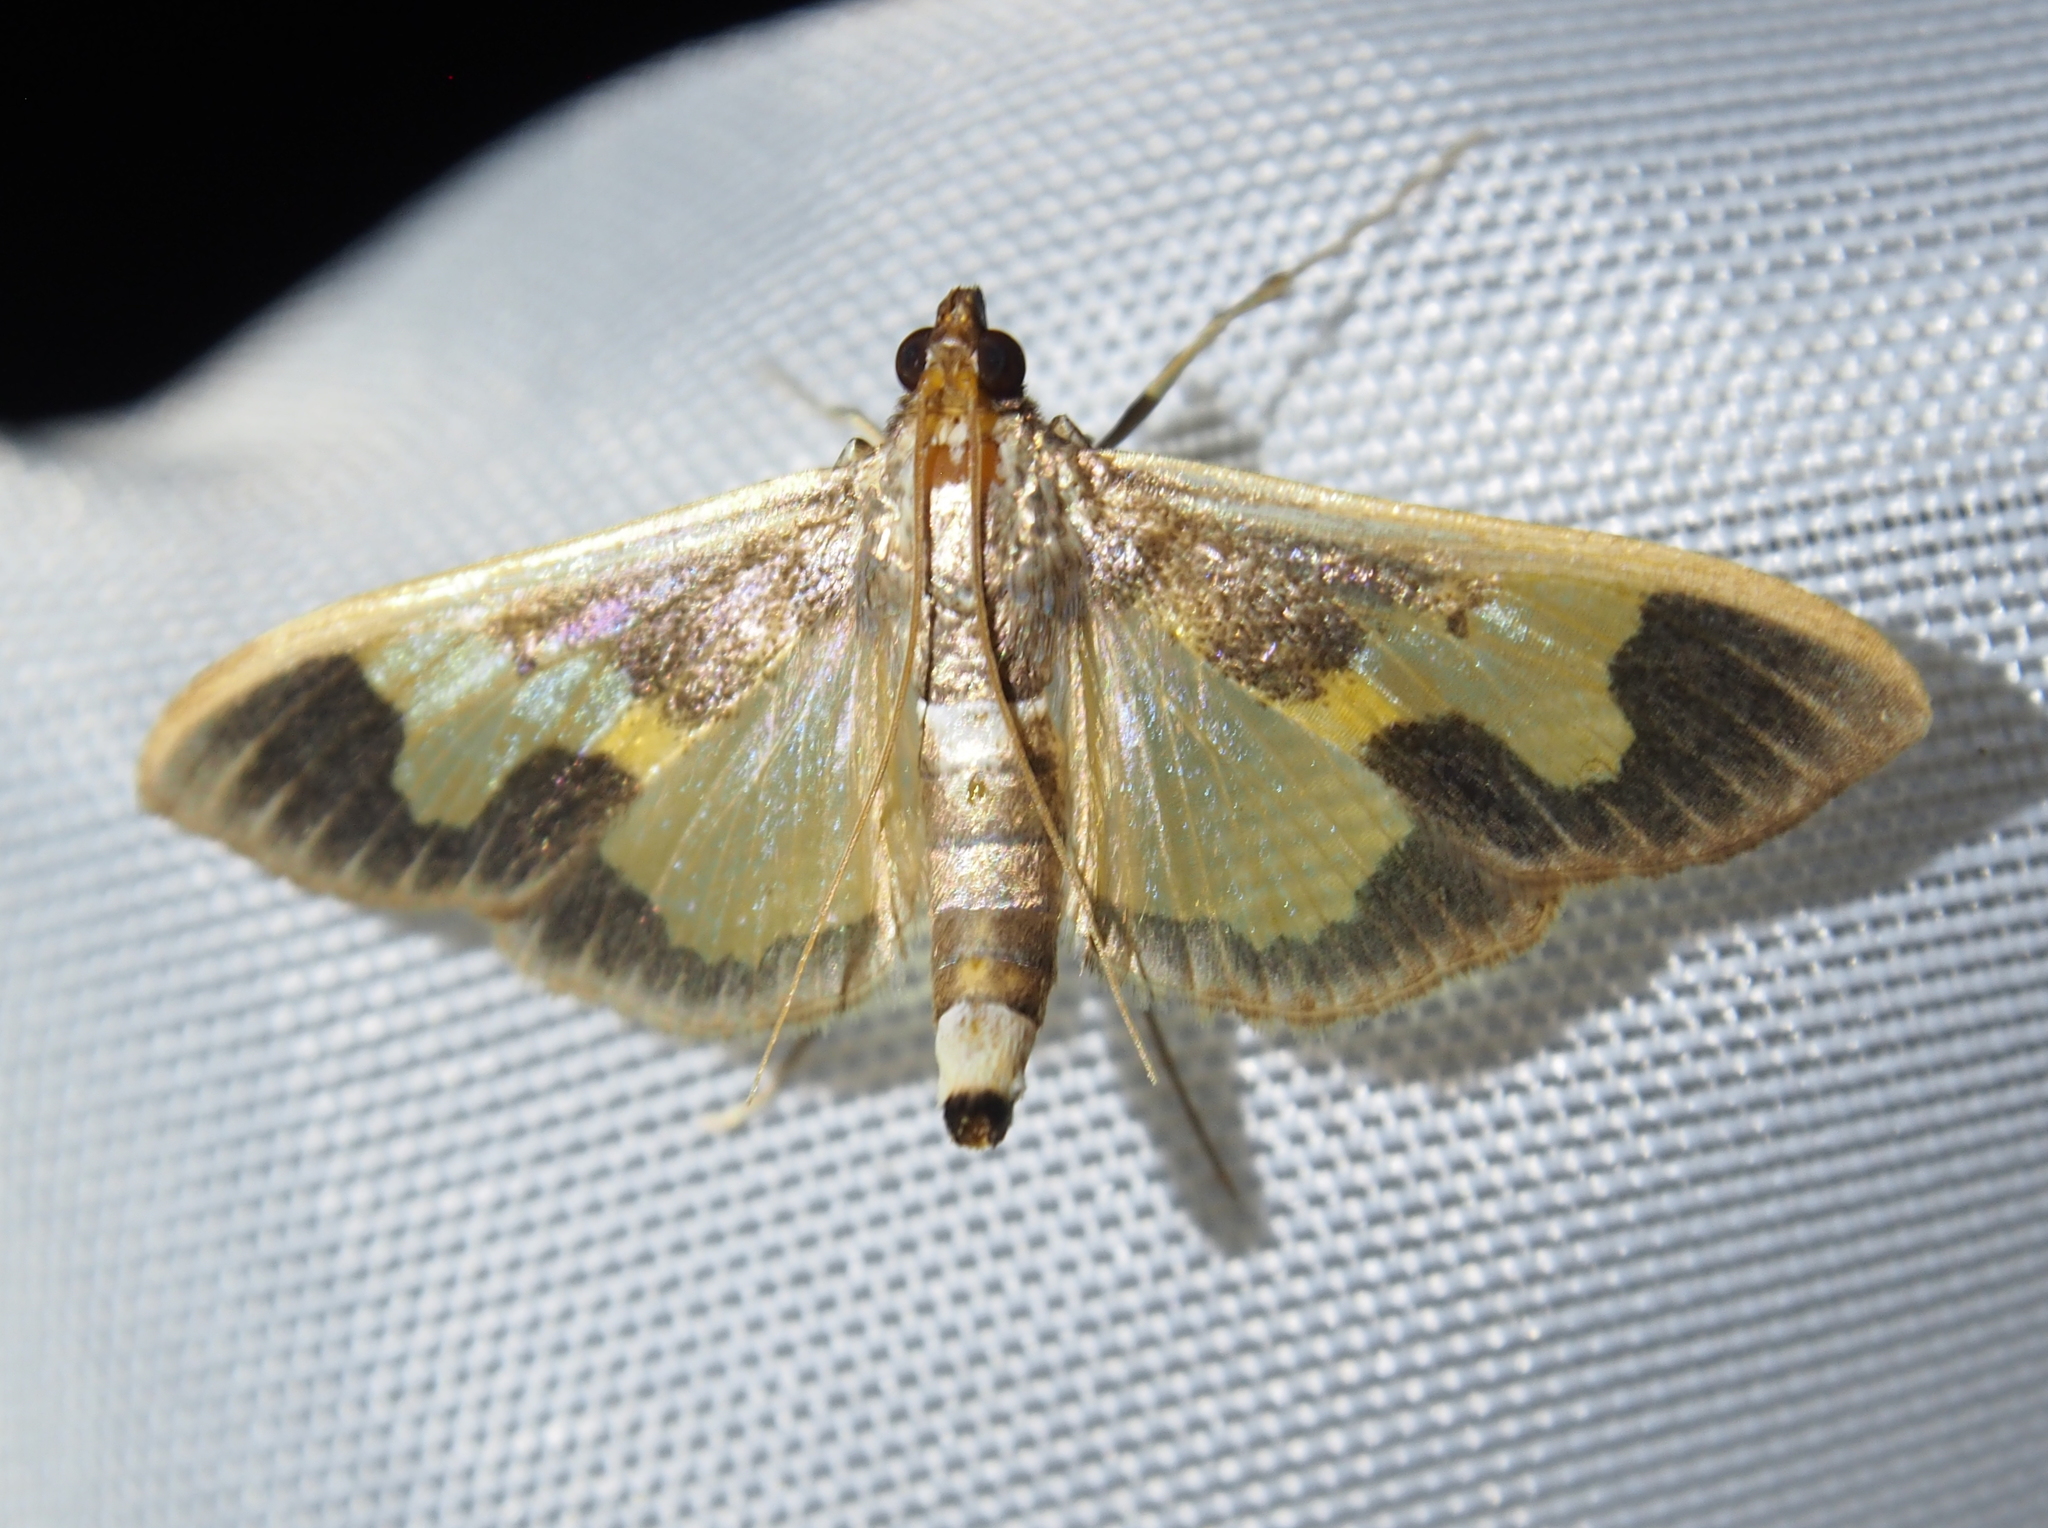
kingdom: Animalia
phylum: Arthropoda
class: Insecta
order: Lepidoptera
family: Crambidae
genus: Cryptographis
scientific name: Cryptographis nitidalis
